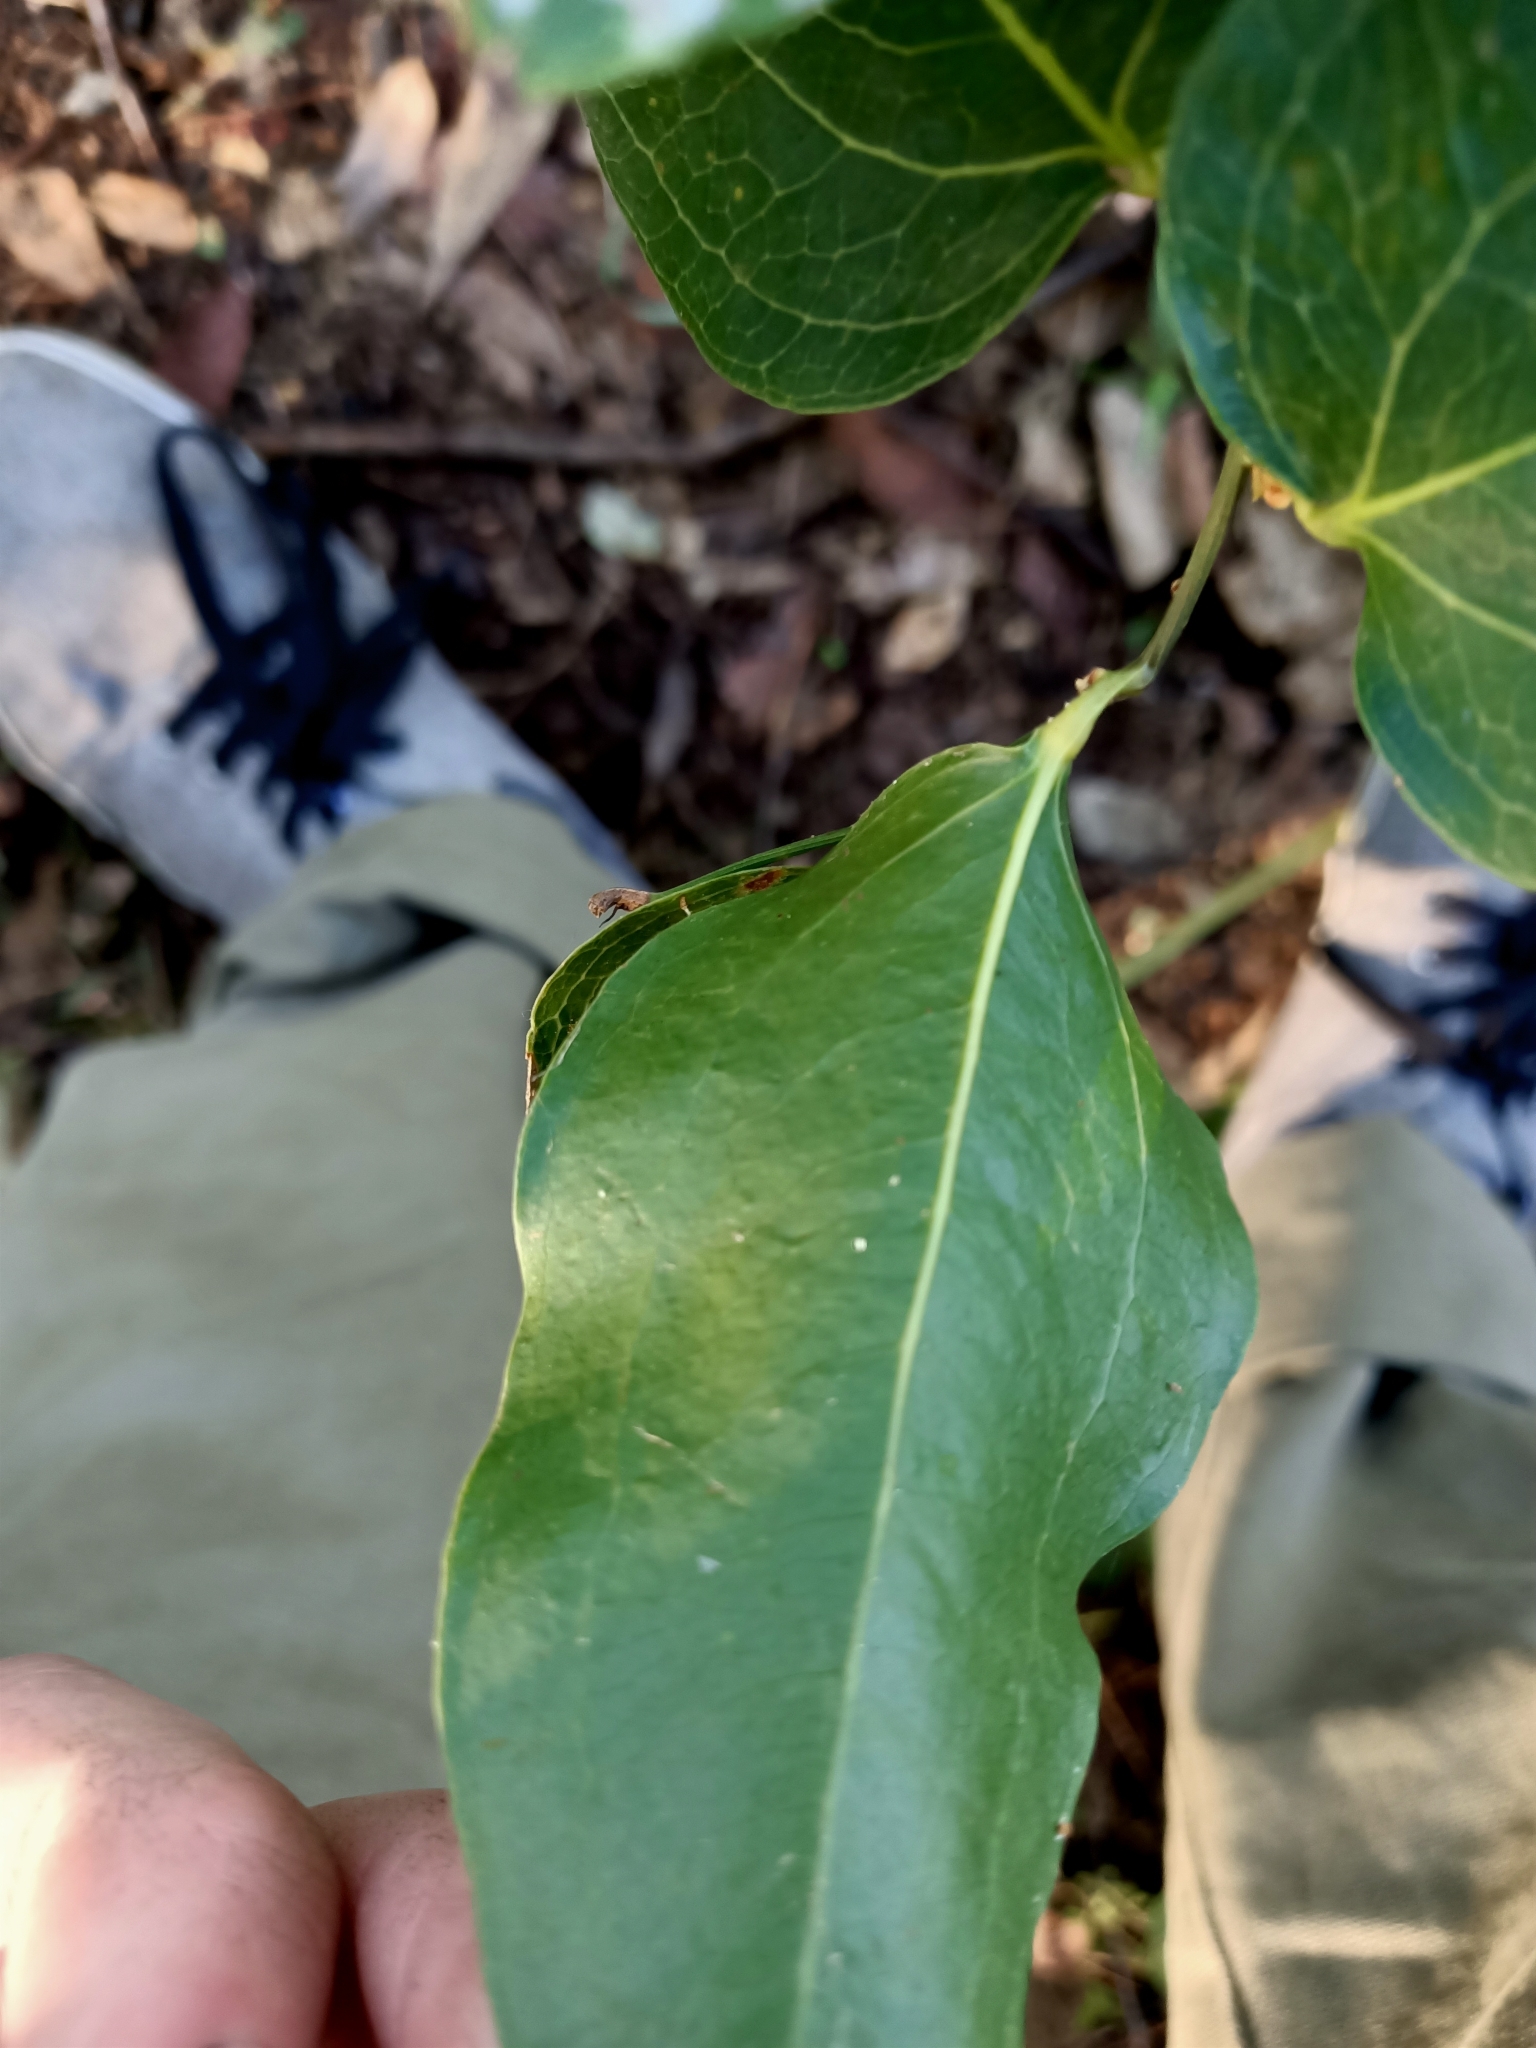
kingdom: Plantae
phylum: Tracheophyta
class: Liliopsida
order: Liliales
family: Smilacaceae
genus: Smilax
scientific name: Smilax australis
